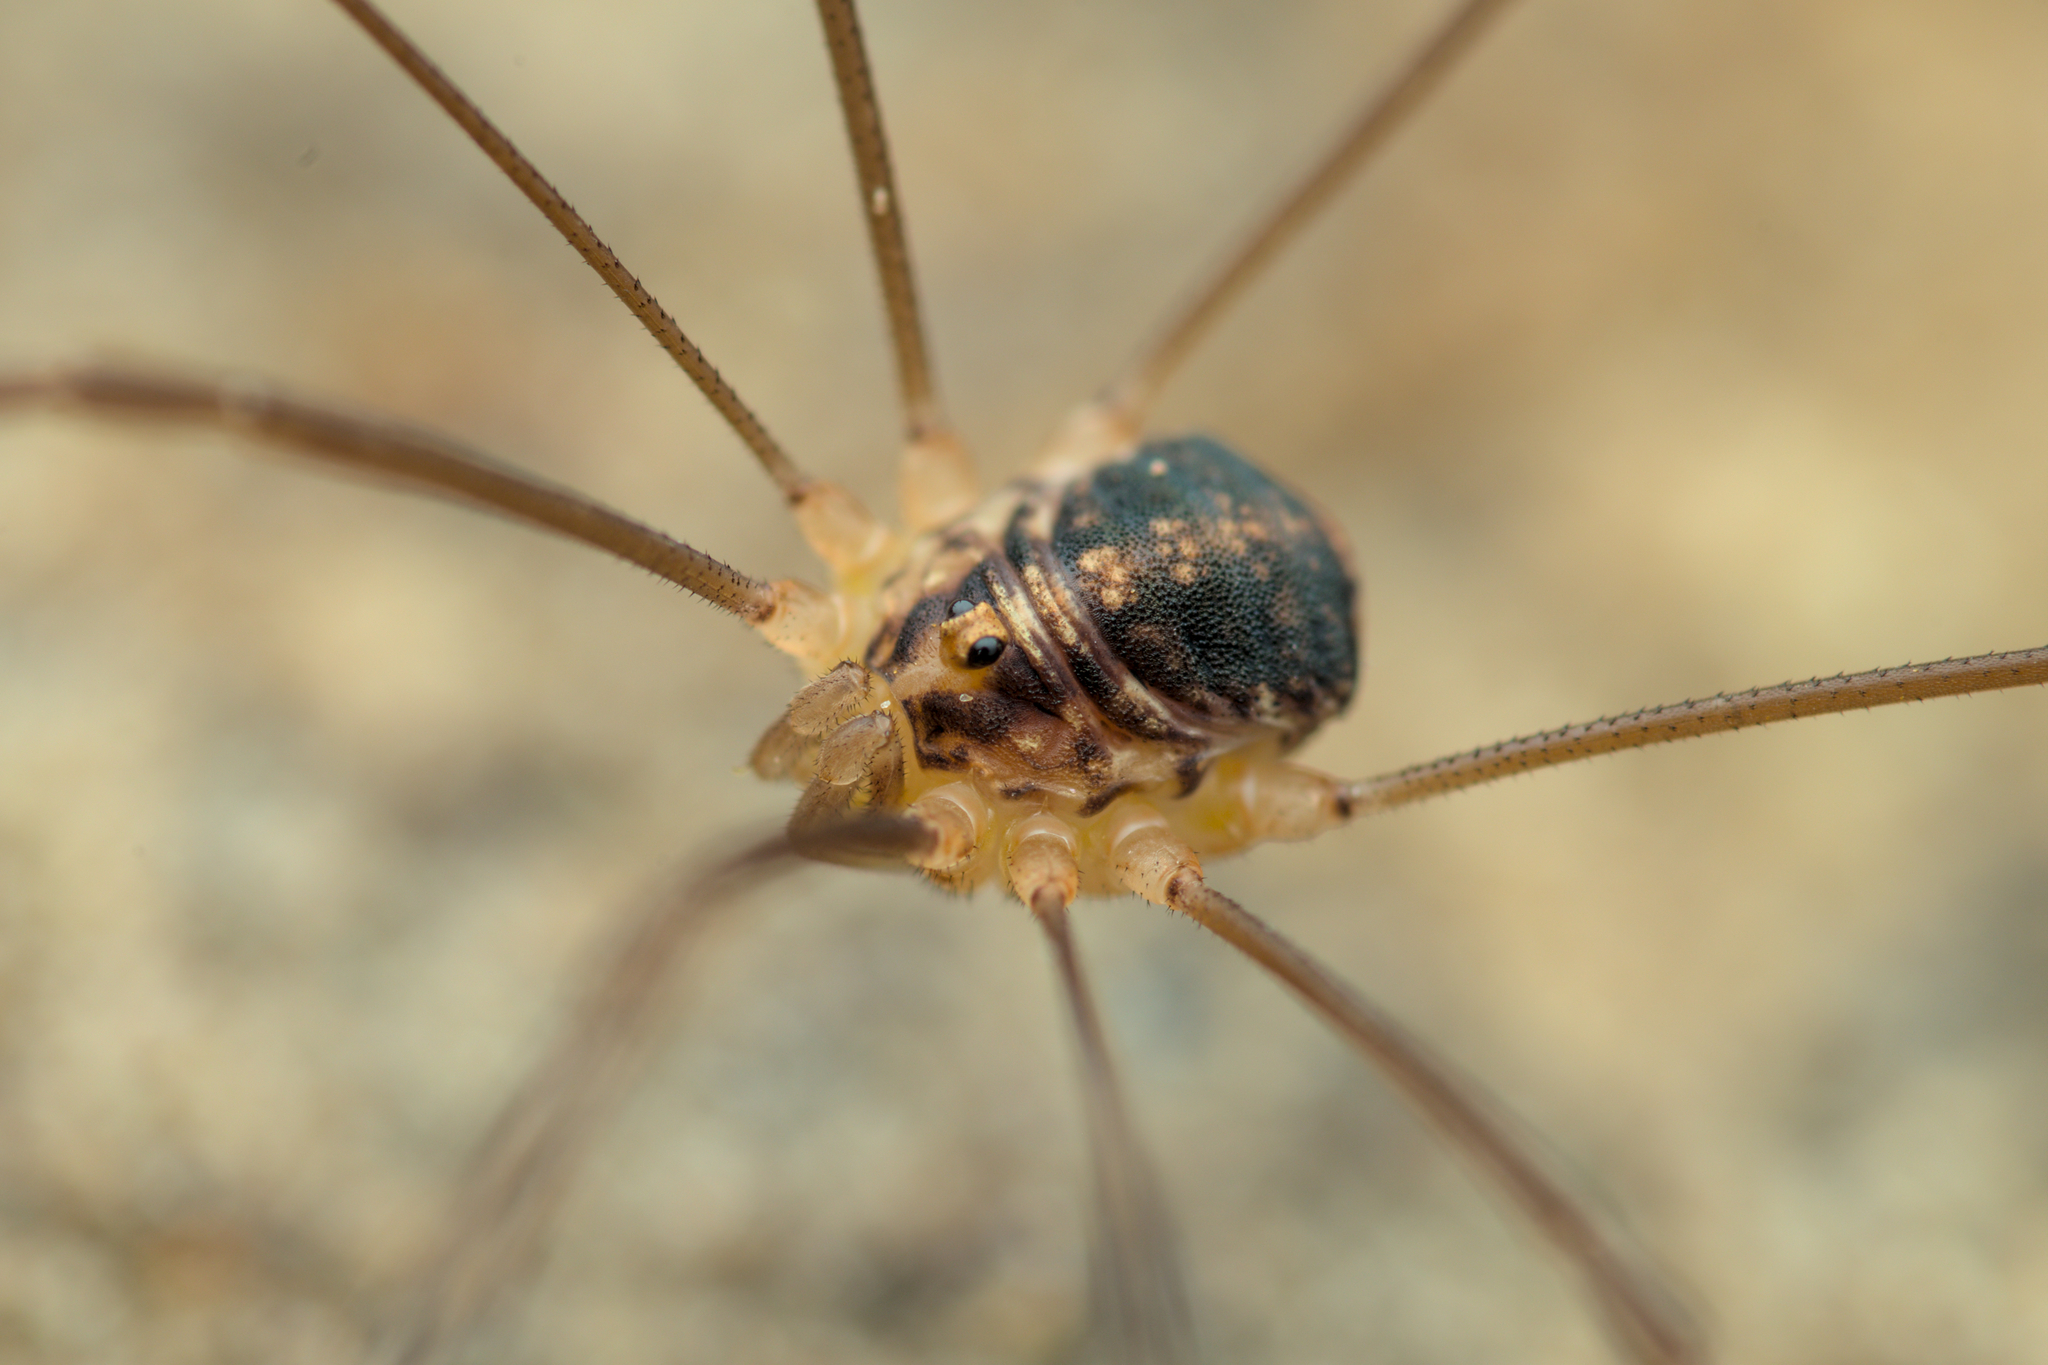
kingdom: Animalia
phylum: Arthropoda
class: Arachnida
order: Opiliones
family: Sclerosomatidae
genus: Nelima
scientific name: Nelima silvatica
